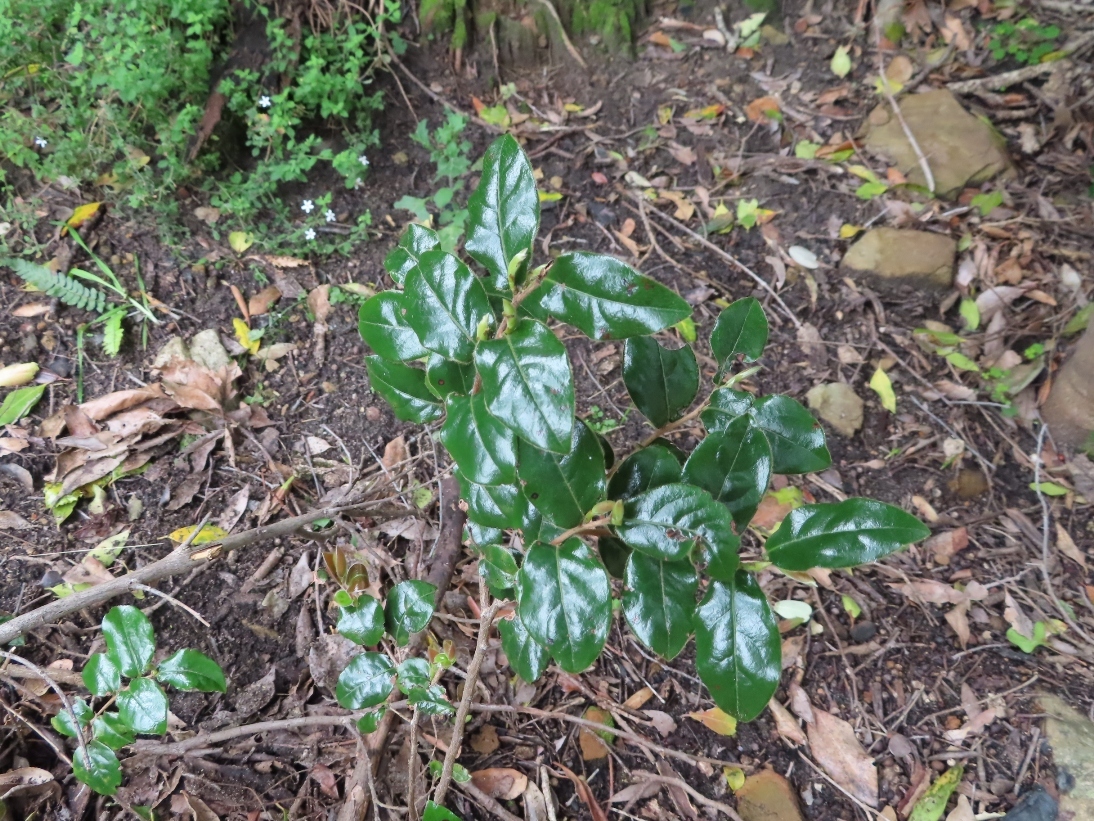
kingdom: Plantae
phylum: Tracheophyta
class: Magnoliopsida
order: Ericales
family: Ebenaceae
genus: Diospyros
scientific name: Diospyros whyteana
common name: Bladder-nut
